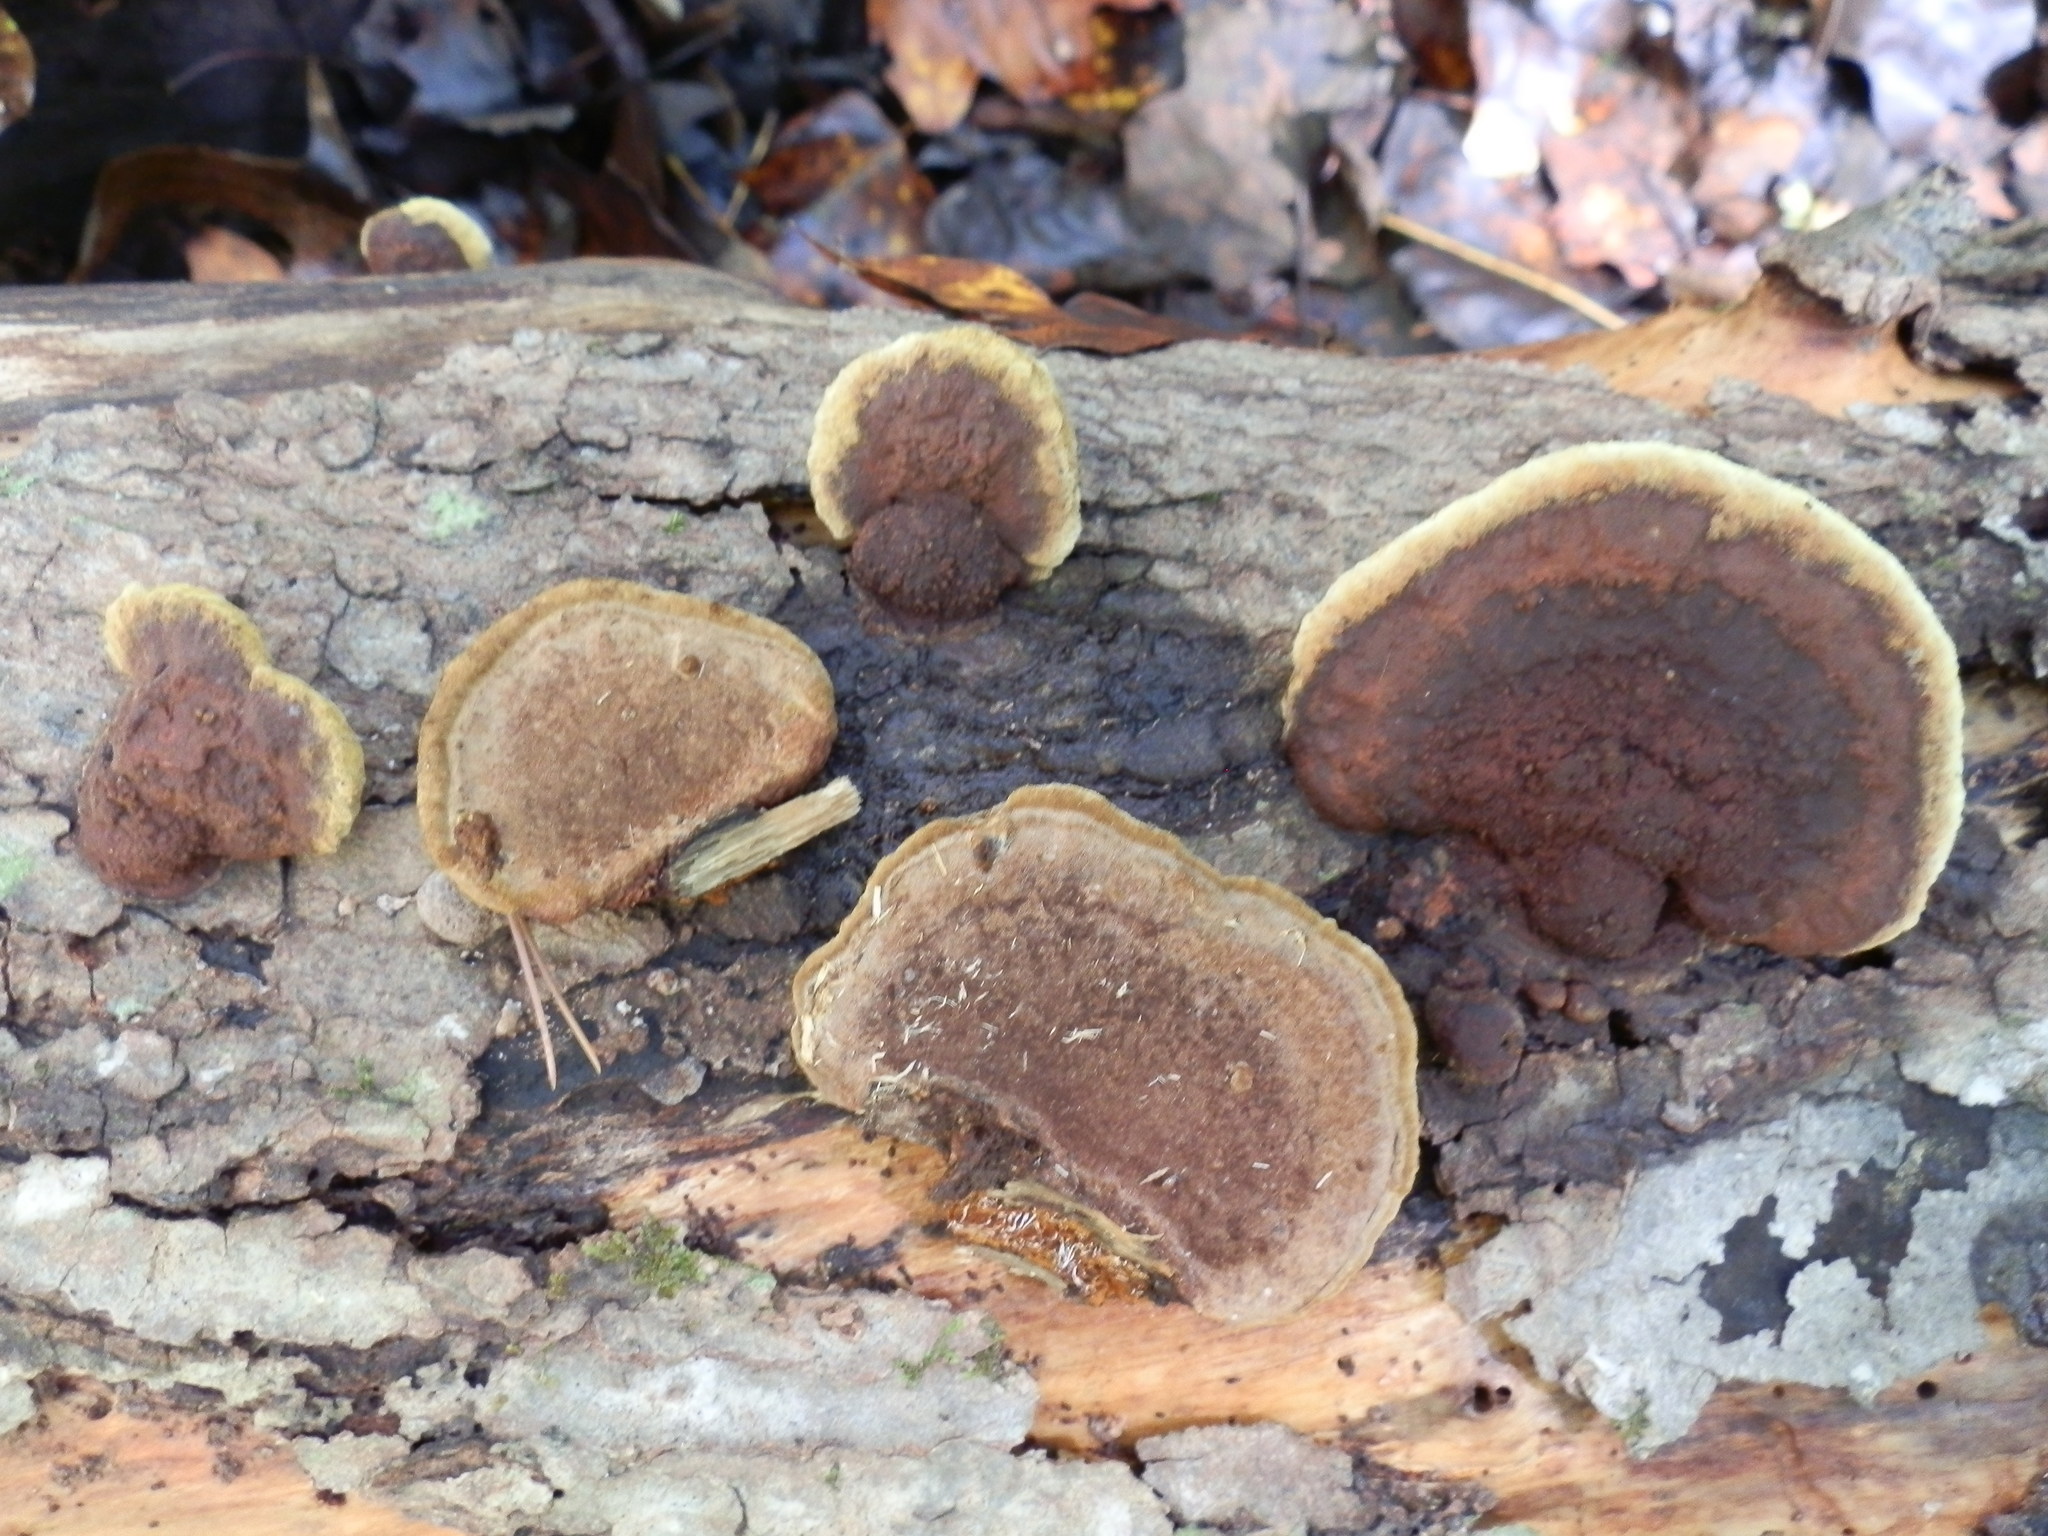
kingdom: Fungi
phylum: Basidiomycota
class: Agaricomycetes
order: Hymenochaetales
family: Hymenochaetaceae
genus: Phellinus
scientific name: Phellinus gilvus
